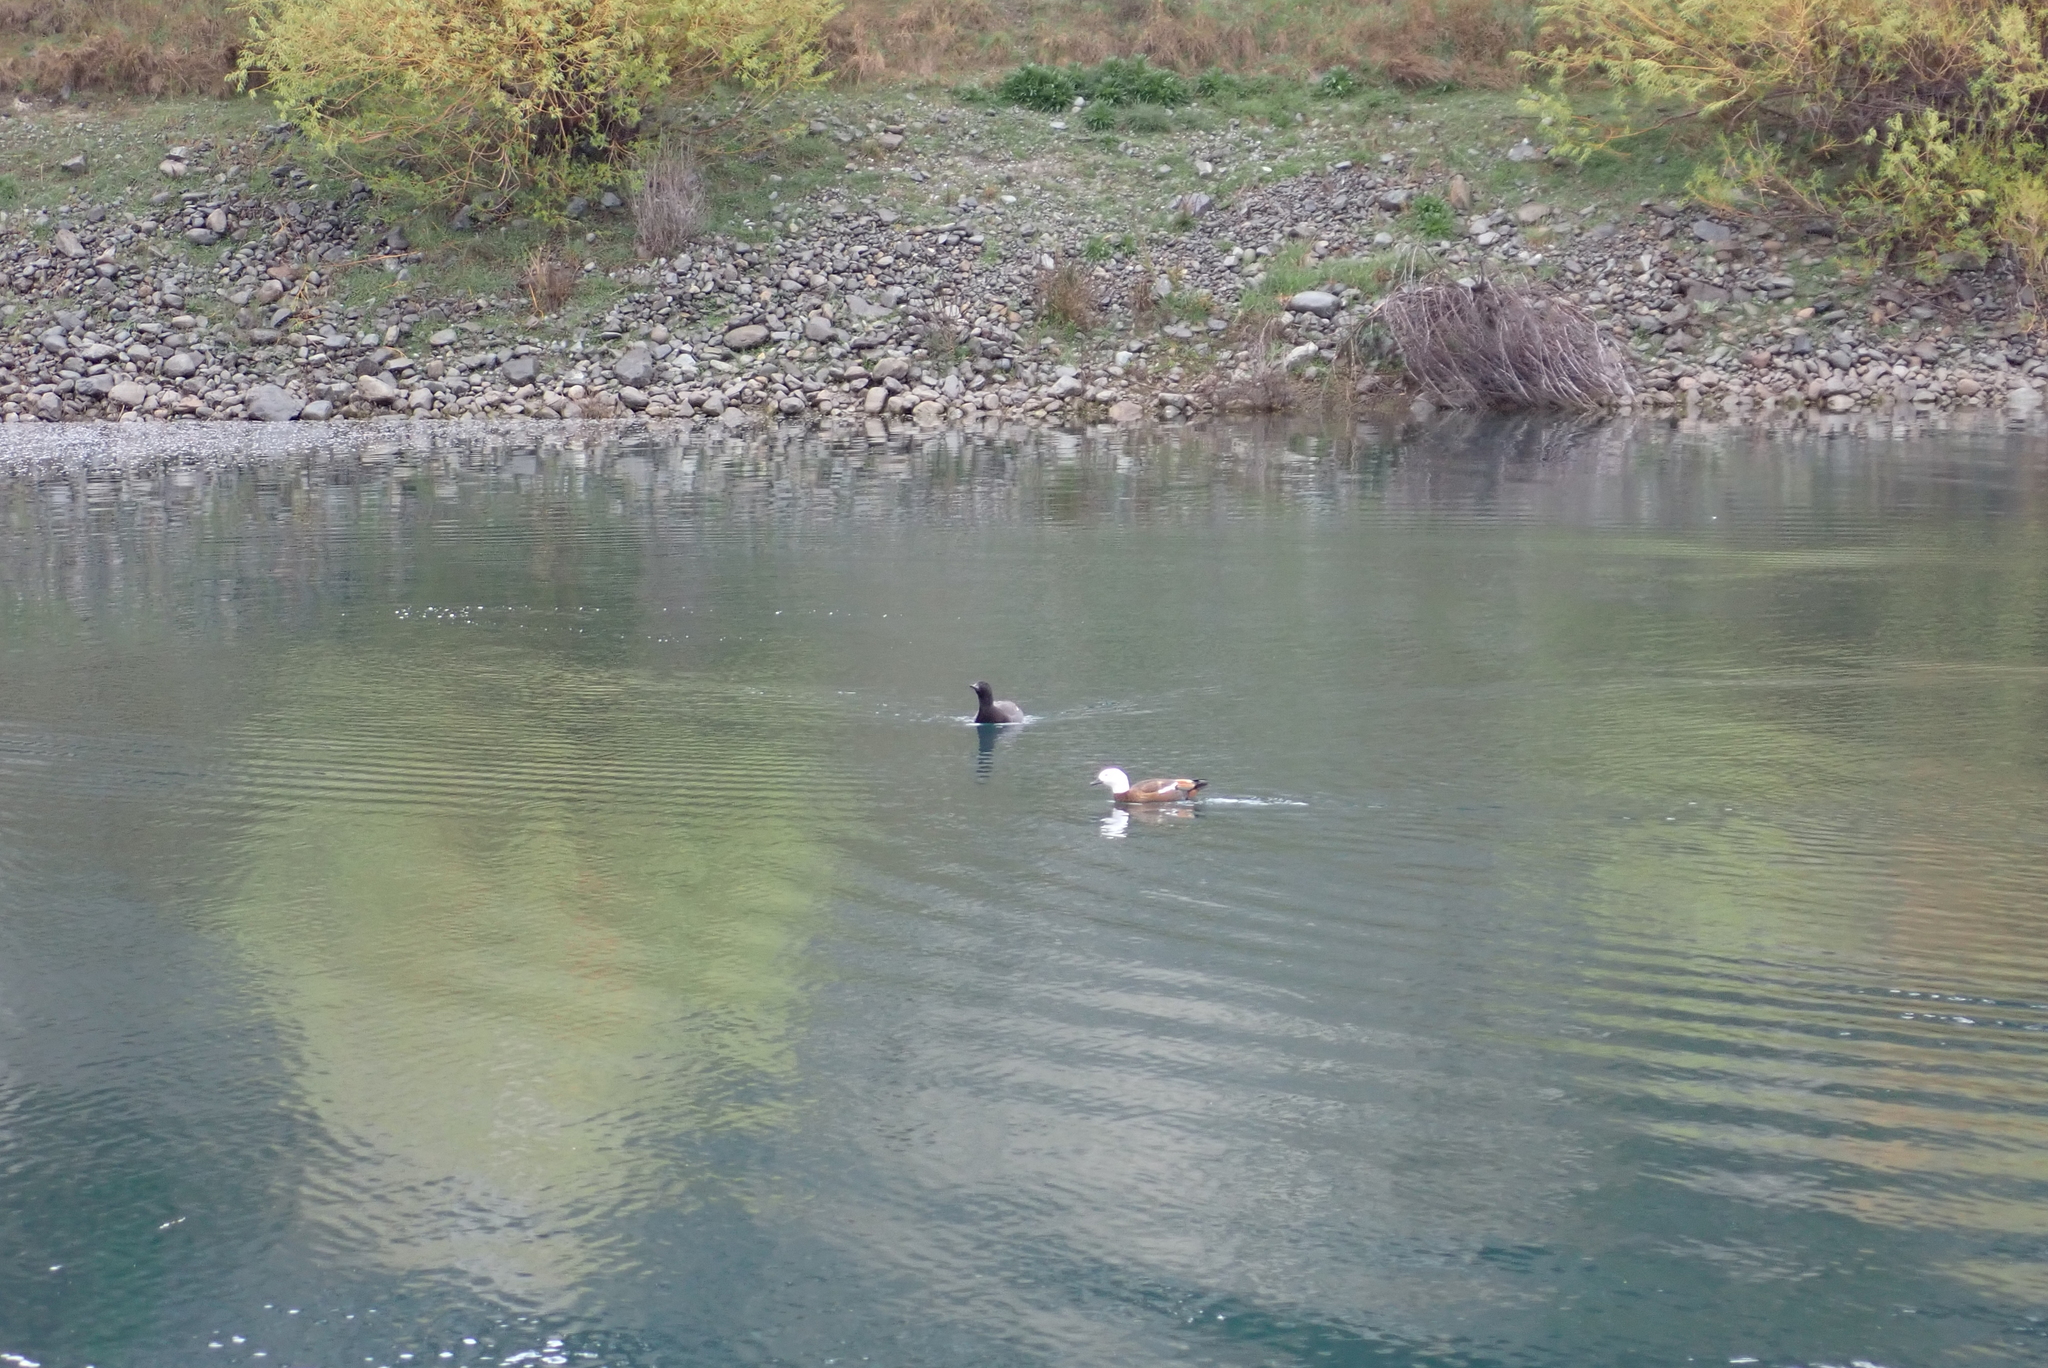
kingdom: Animalia
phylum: Chordata
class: Aves
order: Anseriformes
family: Anatidae
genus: Tadorna
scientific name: Tadorna variegata
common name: Paradise shelduck
